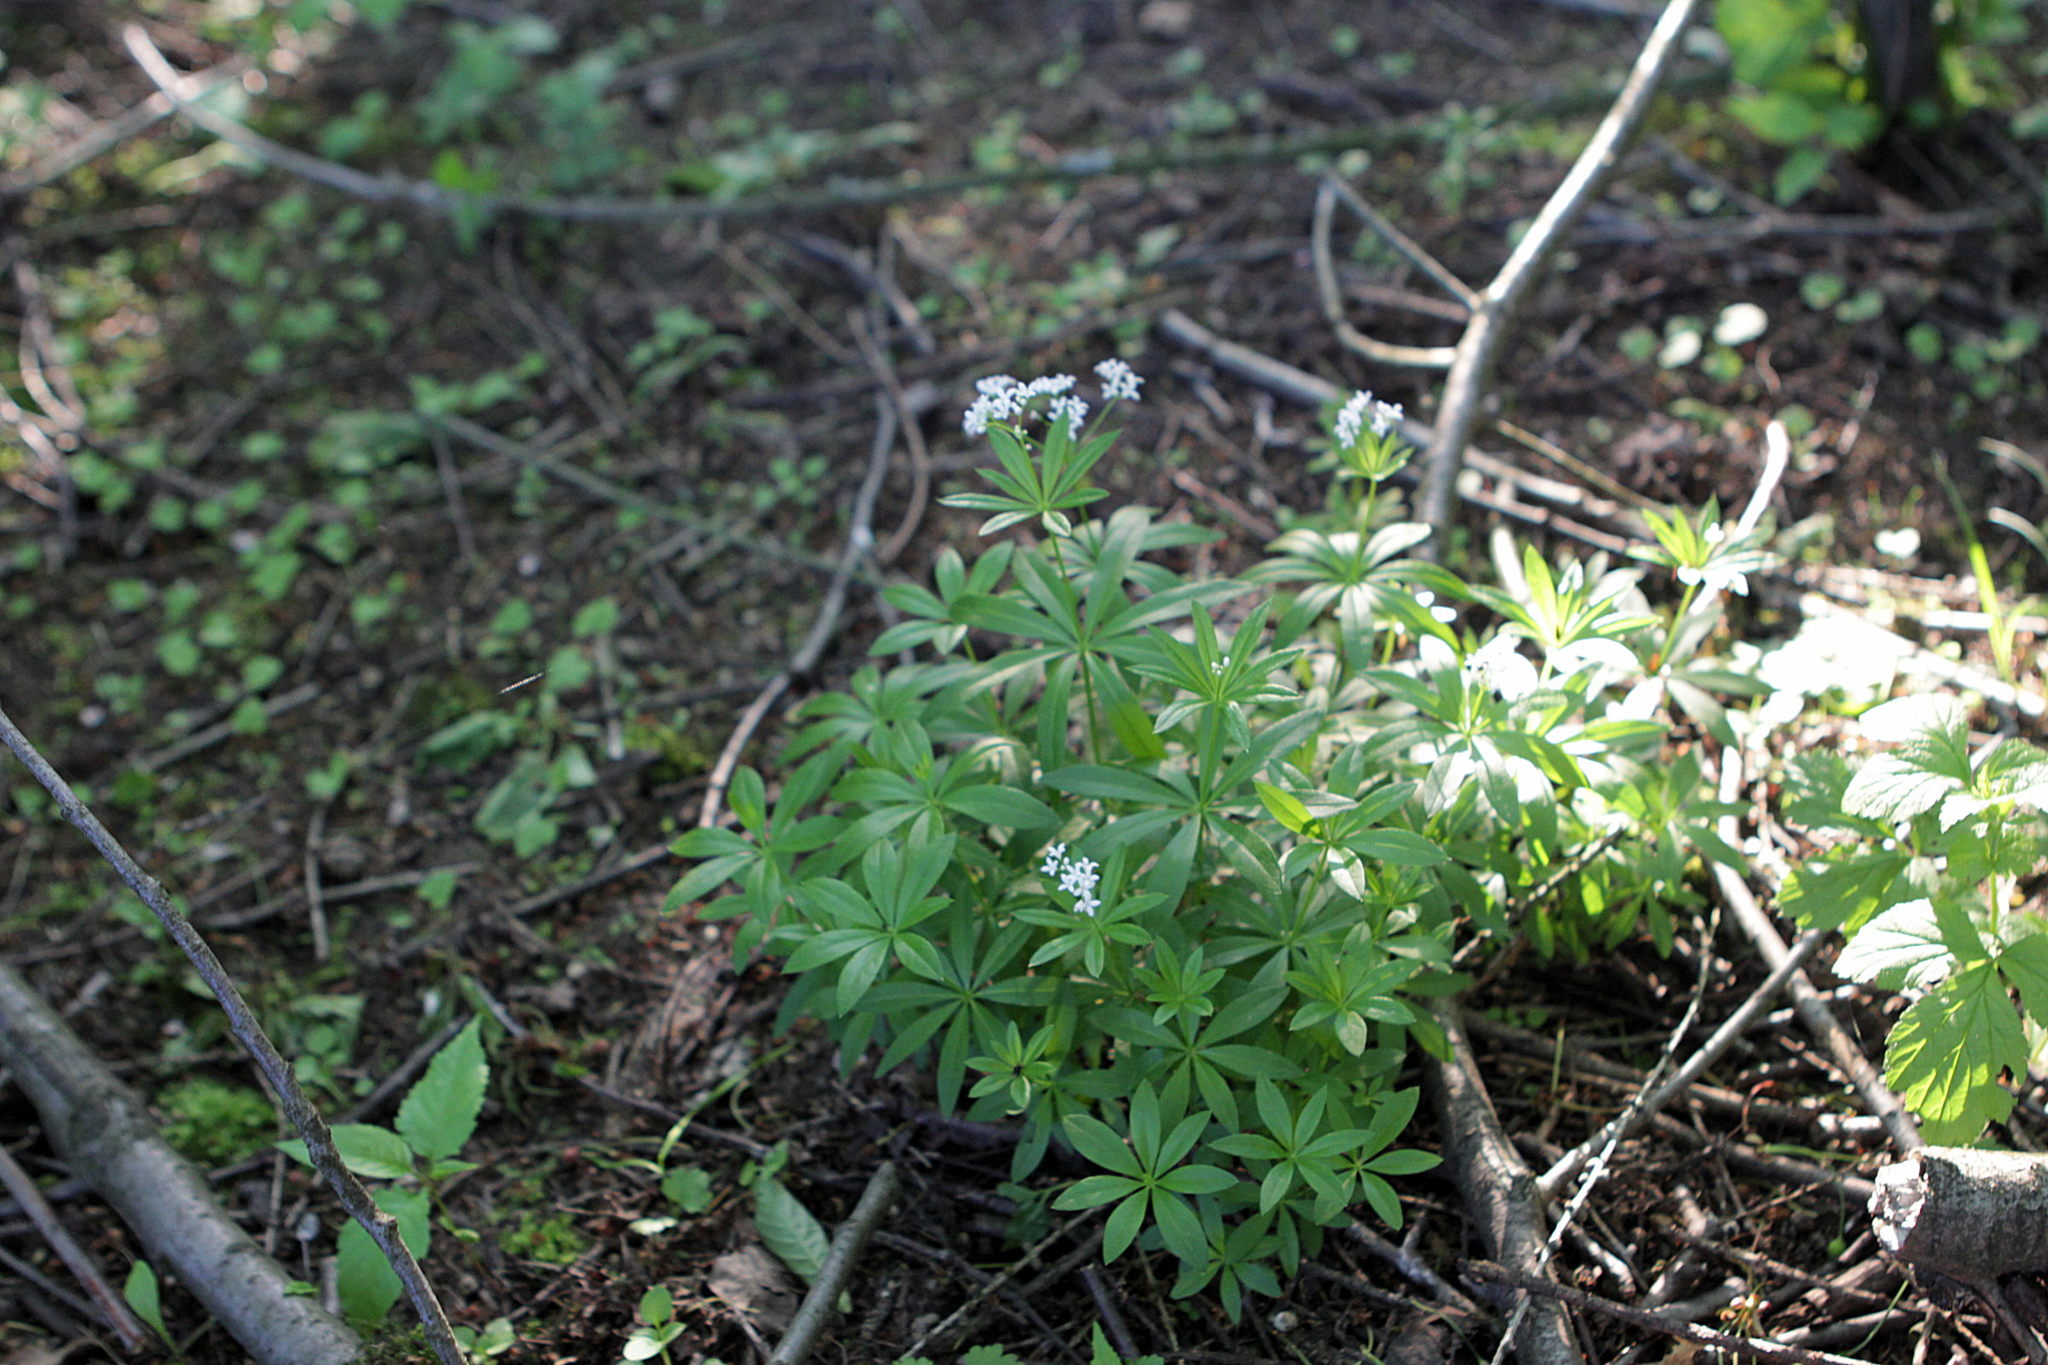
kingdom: Plantae
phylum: Tracheophyta
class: Magnoliopsida
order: Gentianales
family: Rubiaceae
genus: Galium
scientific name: Galium odoratum
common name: Sweet woodruff
